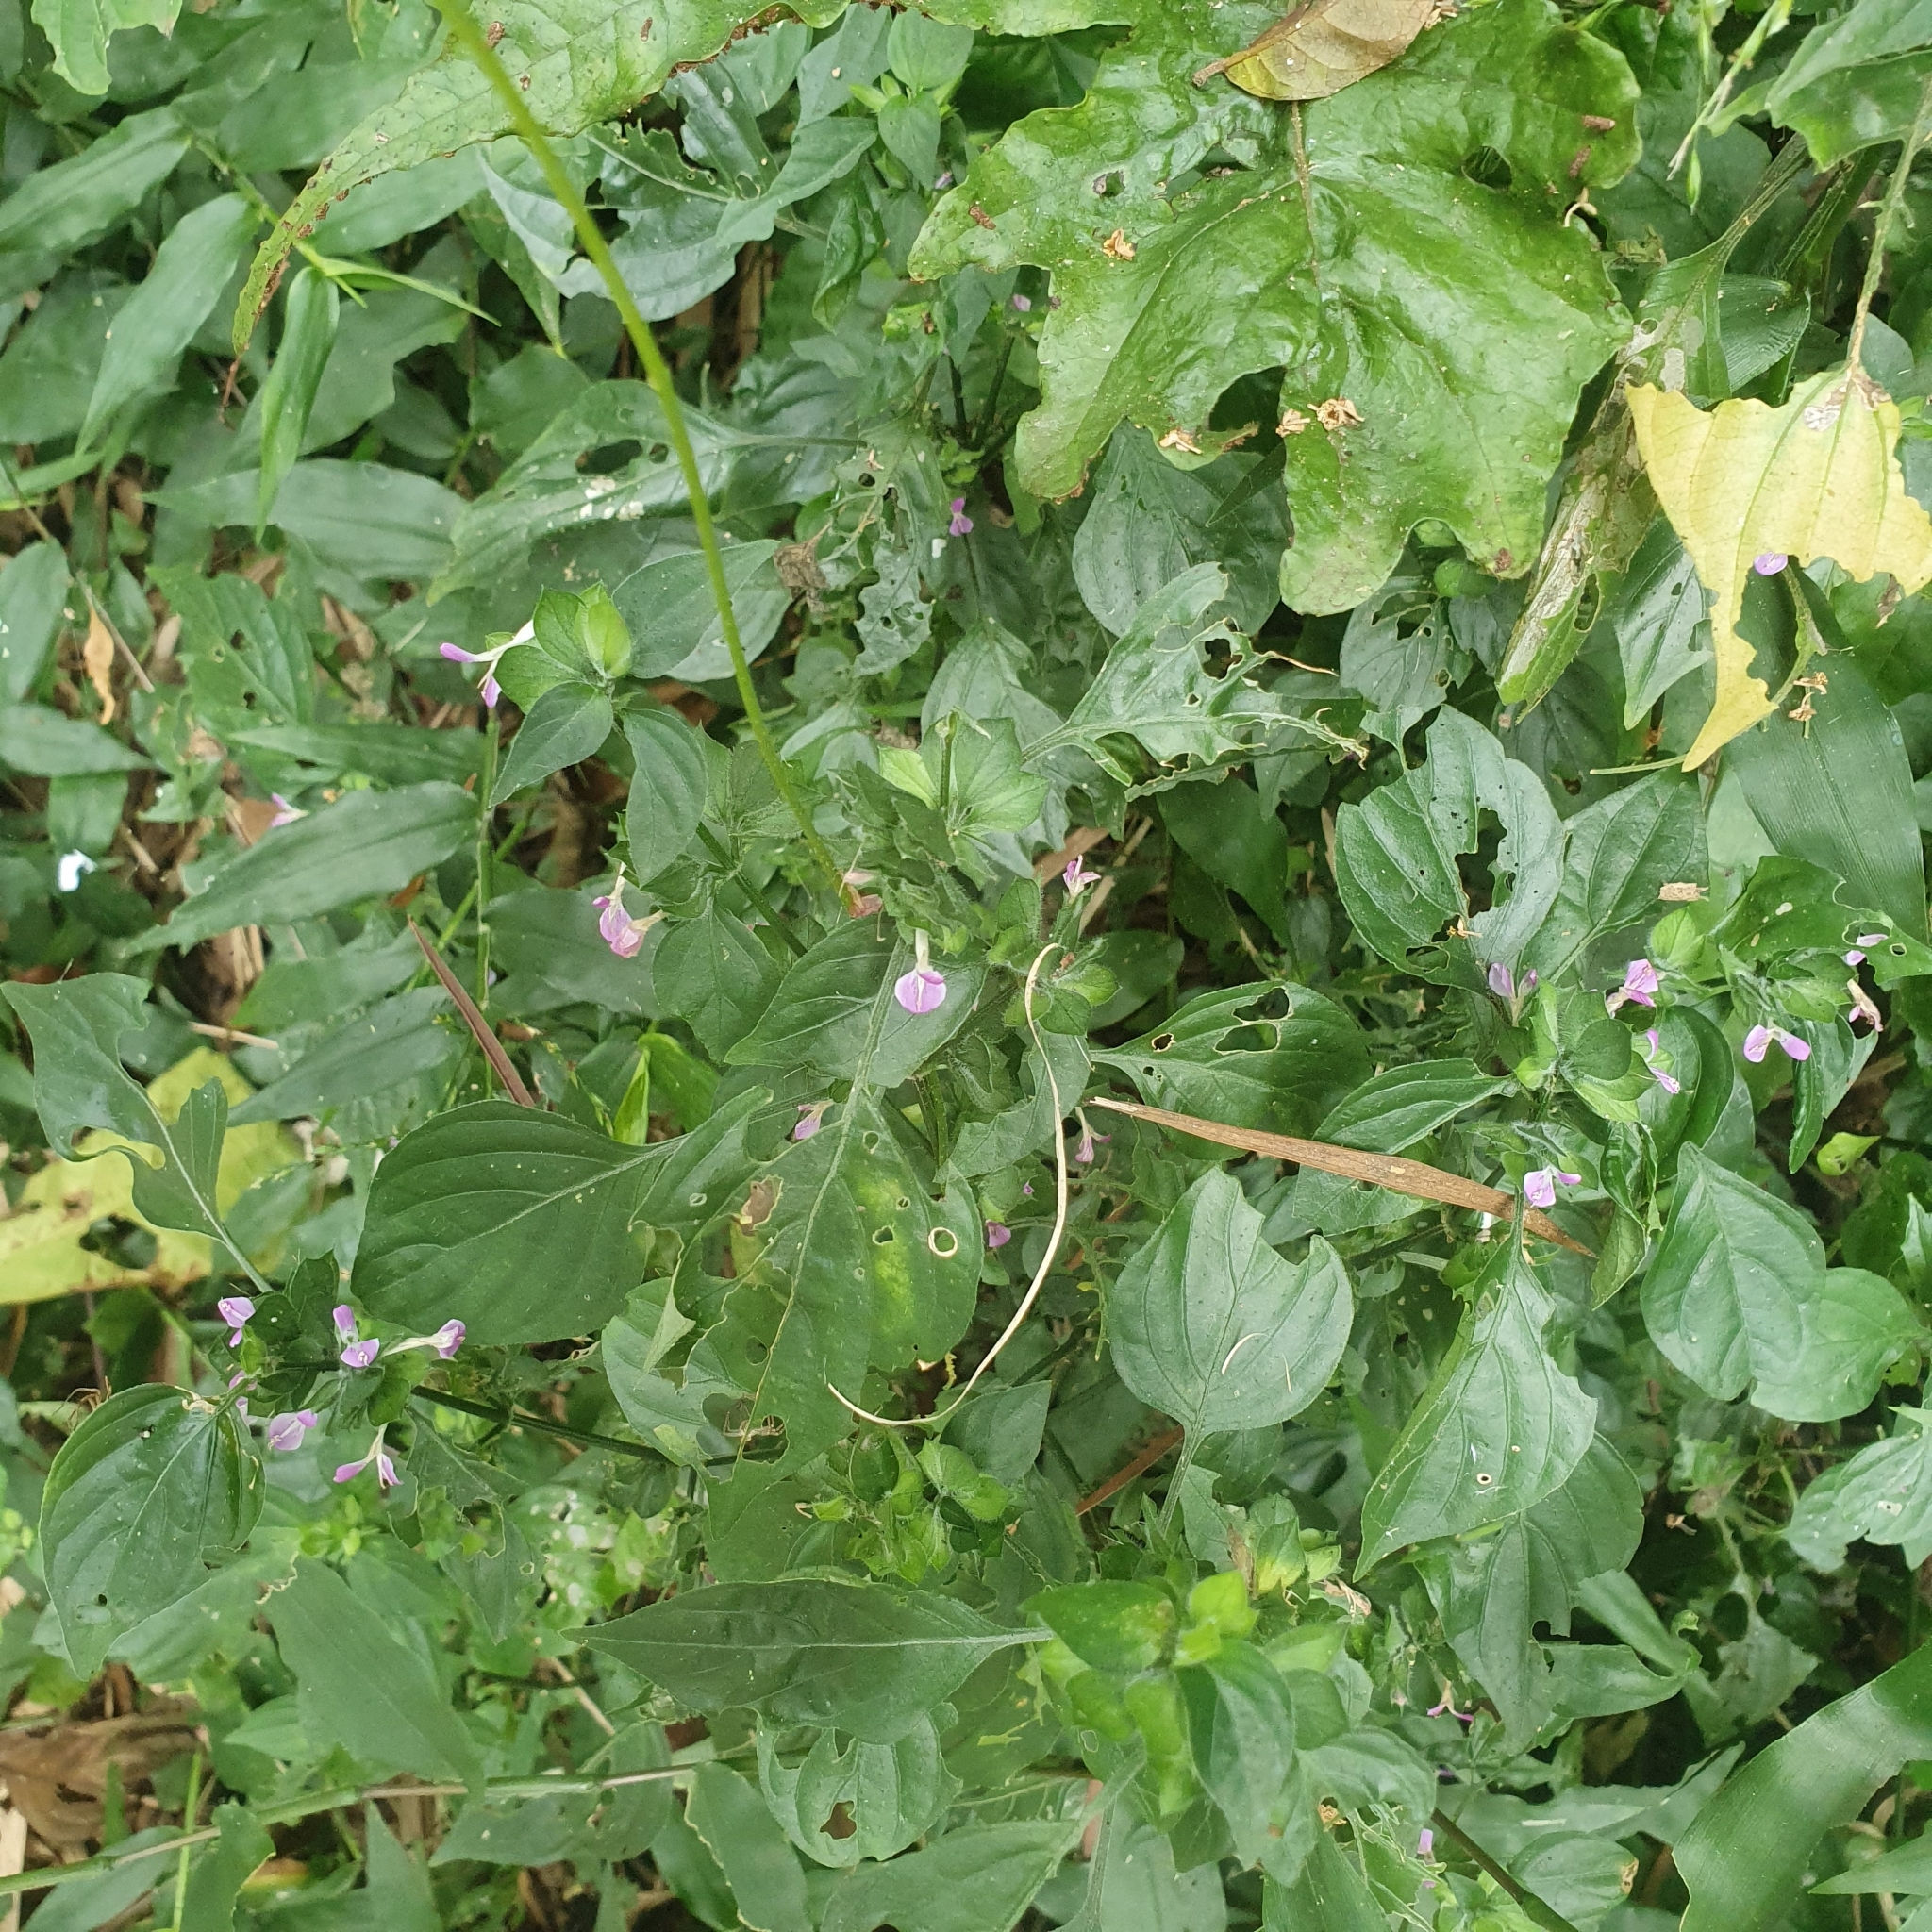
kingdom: Plantae
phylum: Tracheophyta
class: Magnoliopsida
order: Lamiales
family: Acanthaceae
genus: Dicliptera
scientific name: Dicliptera chinensis
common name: Chinese foldwing
